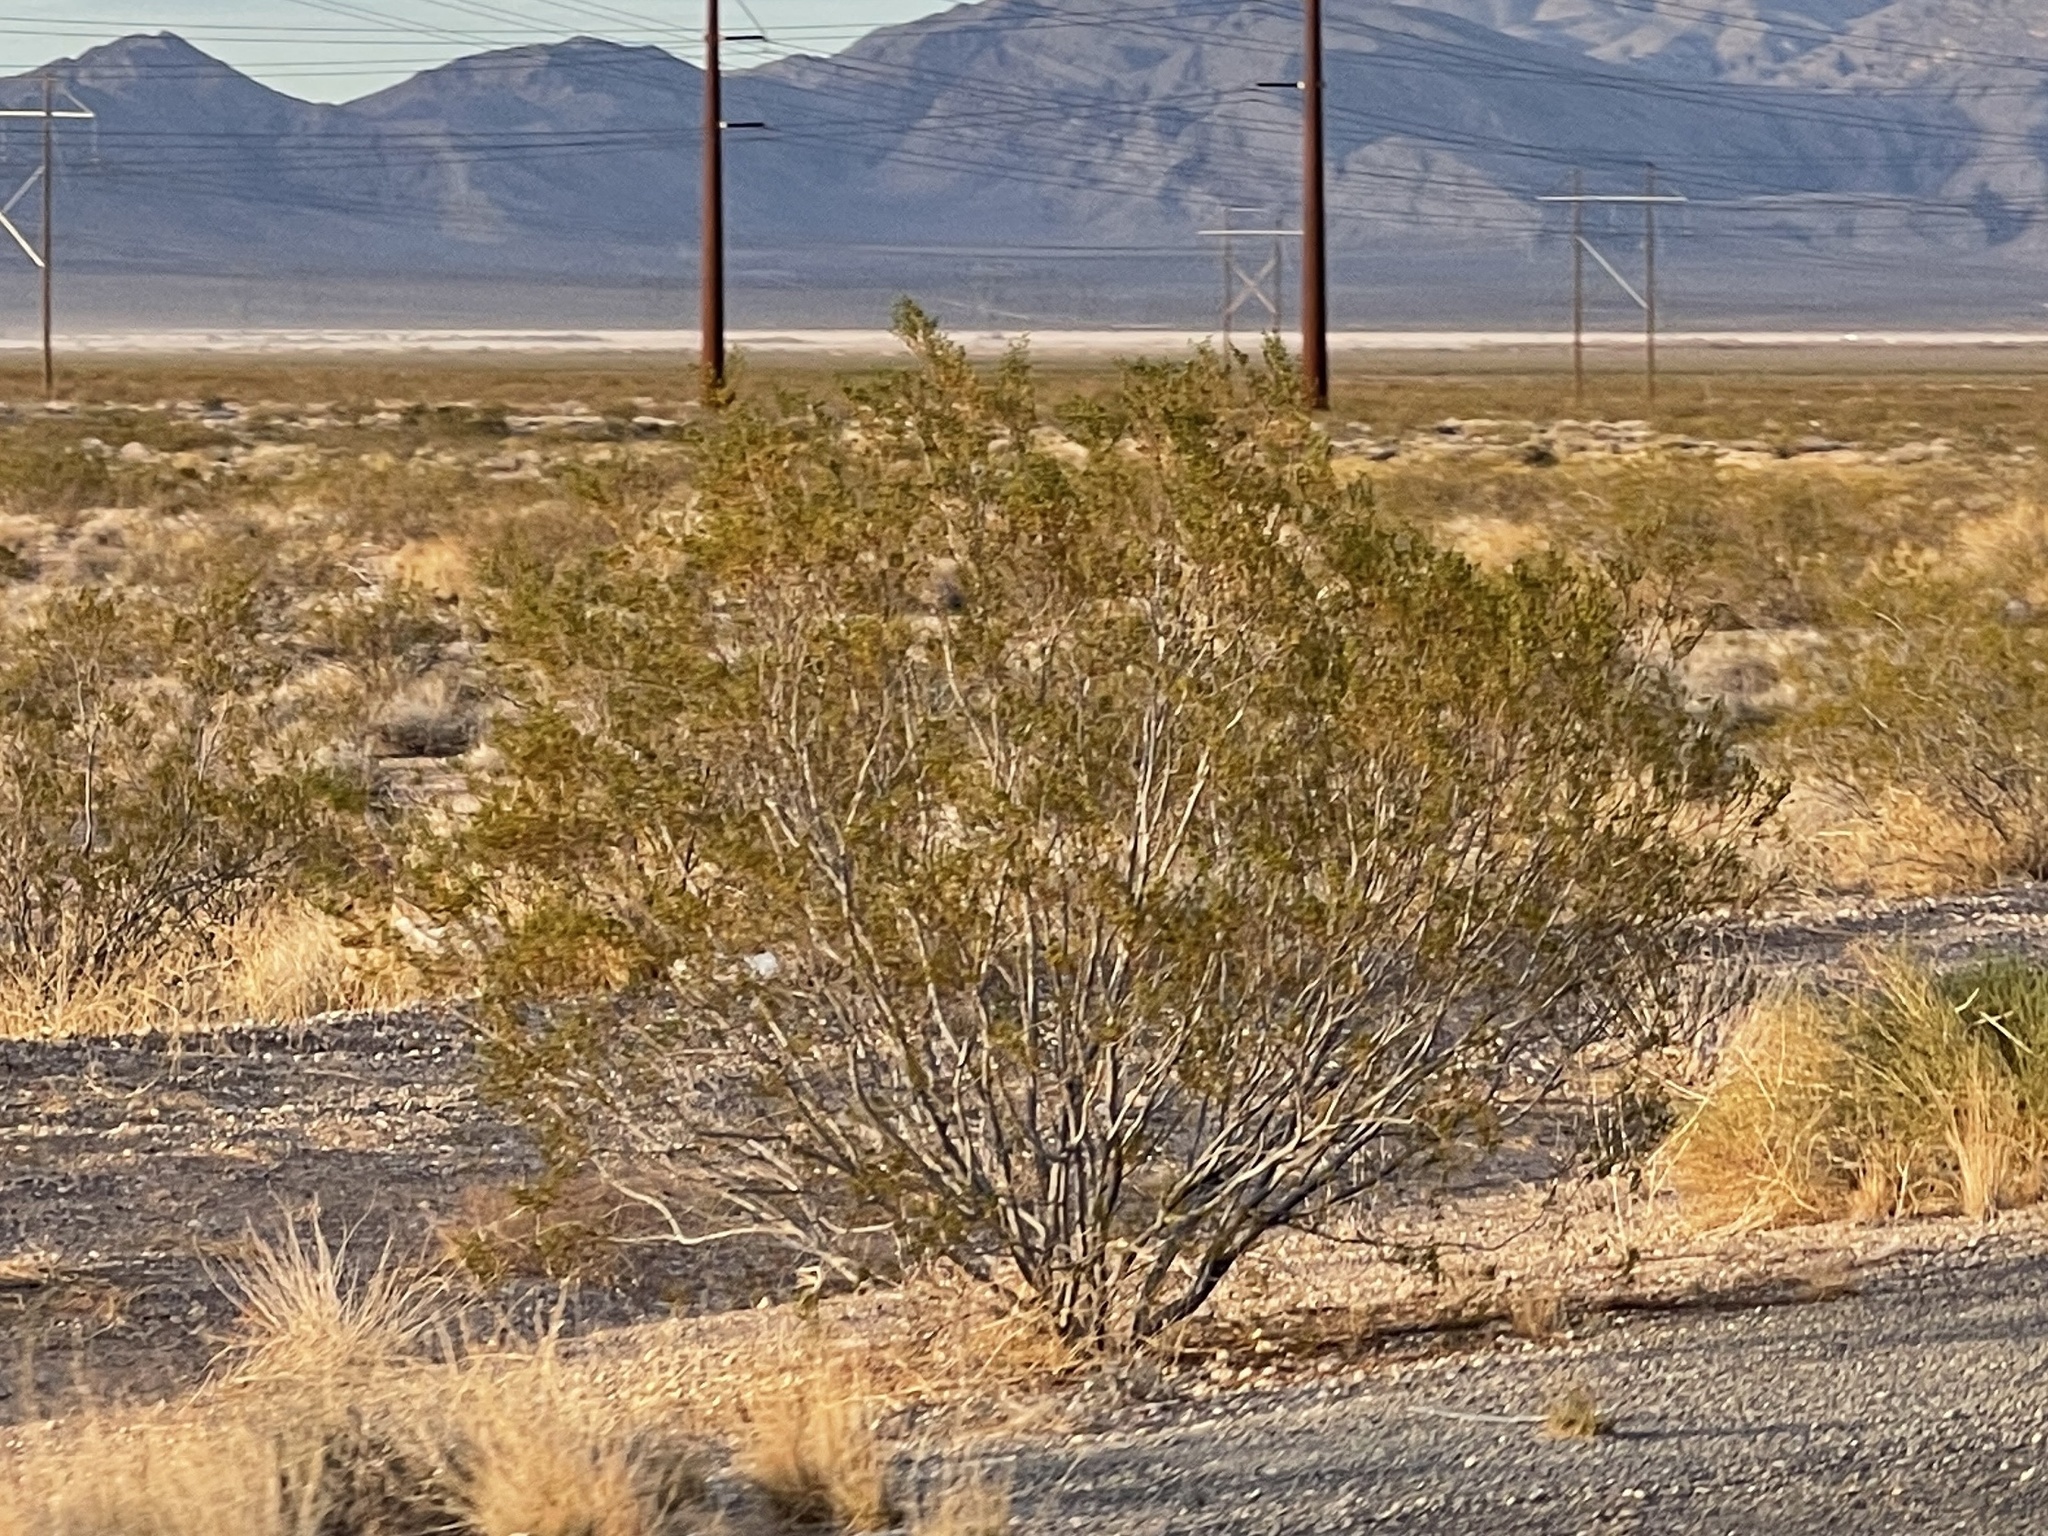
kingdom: Plantae
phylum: Tracheophyta
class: Magnoliopsida
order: Zygophyllales
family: Zygophyllaceae
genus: Larrea
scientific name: Larrea tridentata
